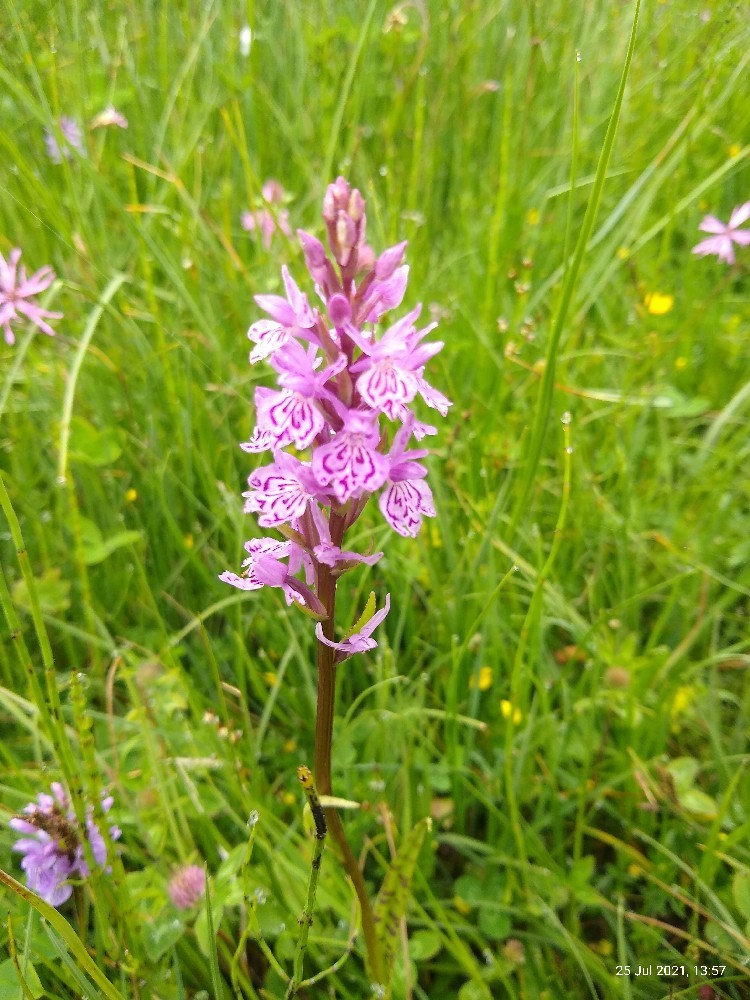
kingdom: Plantae
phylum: Tracheophyta
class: Liliopsida
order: Asparagales
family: Orchidaceae
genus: Dactylorhiza
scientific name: Dactylorhiza maculata
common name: Heath spotted-orchid
